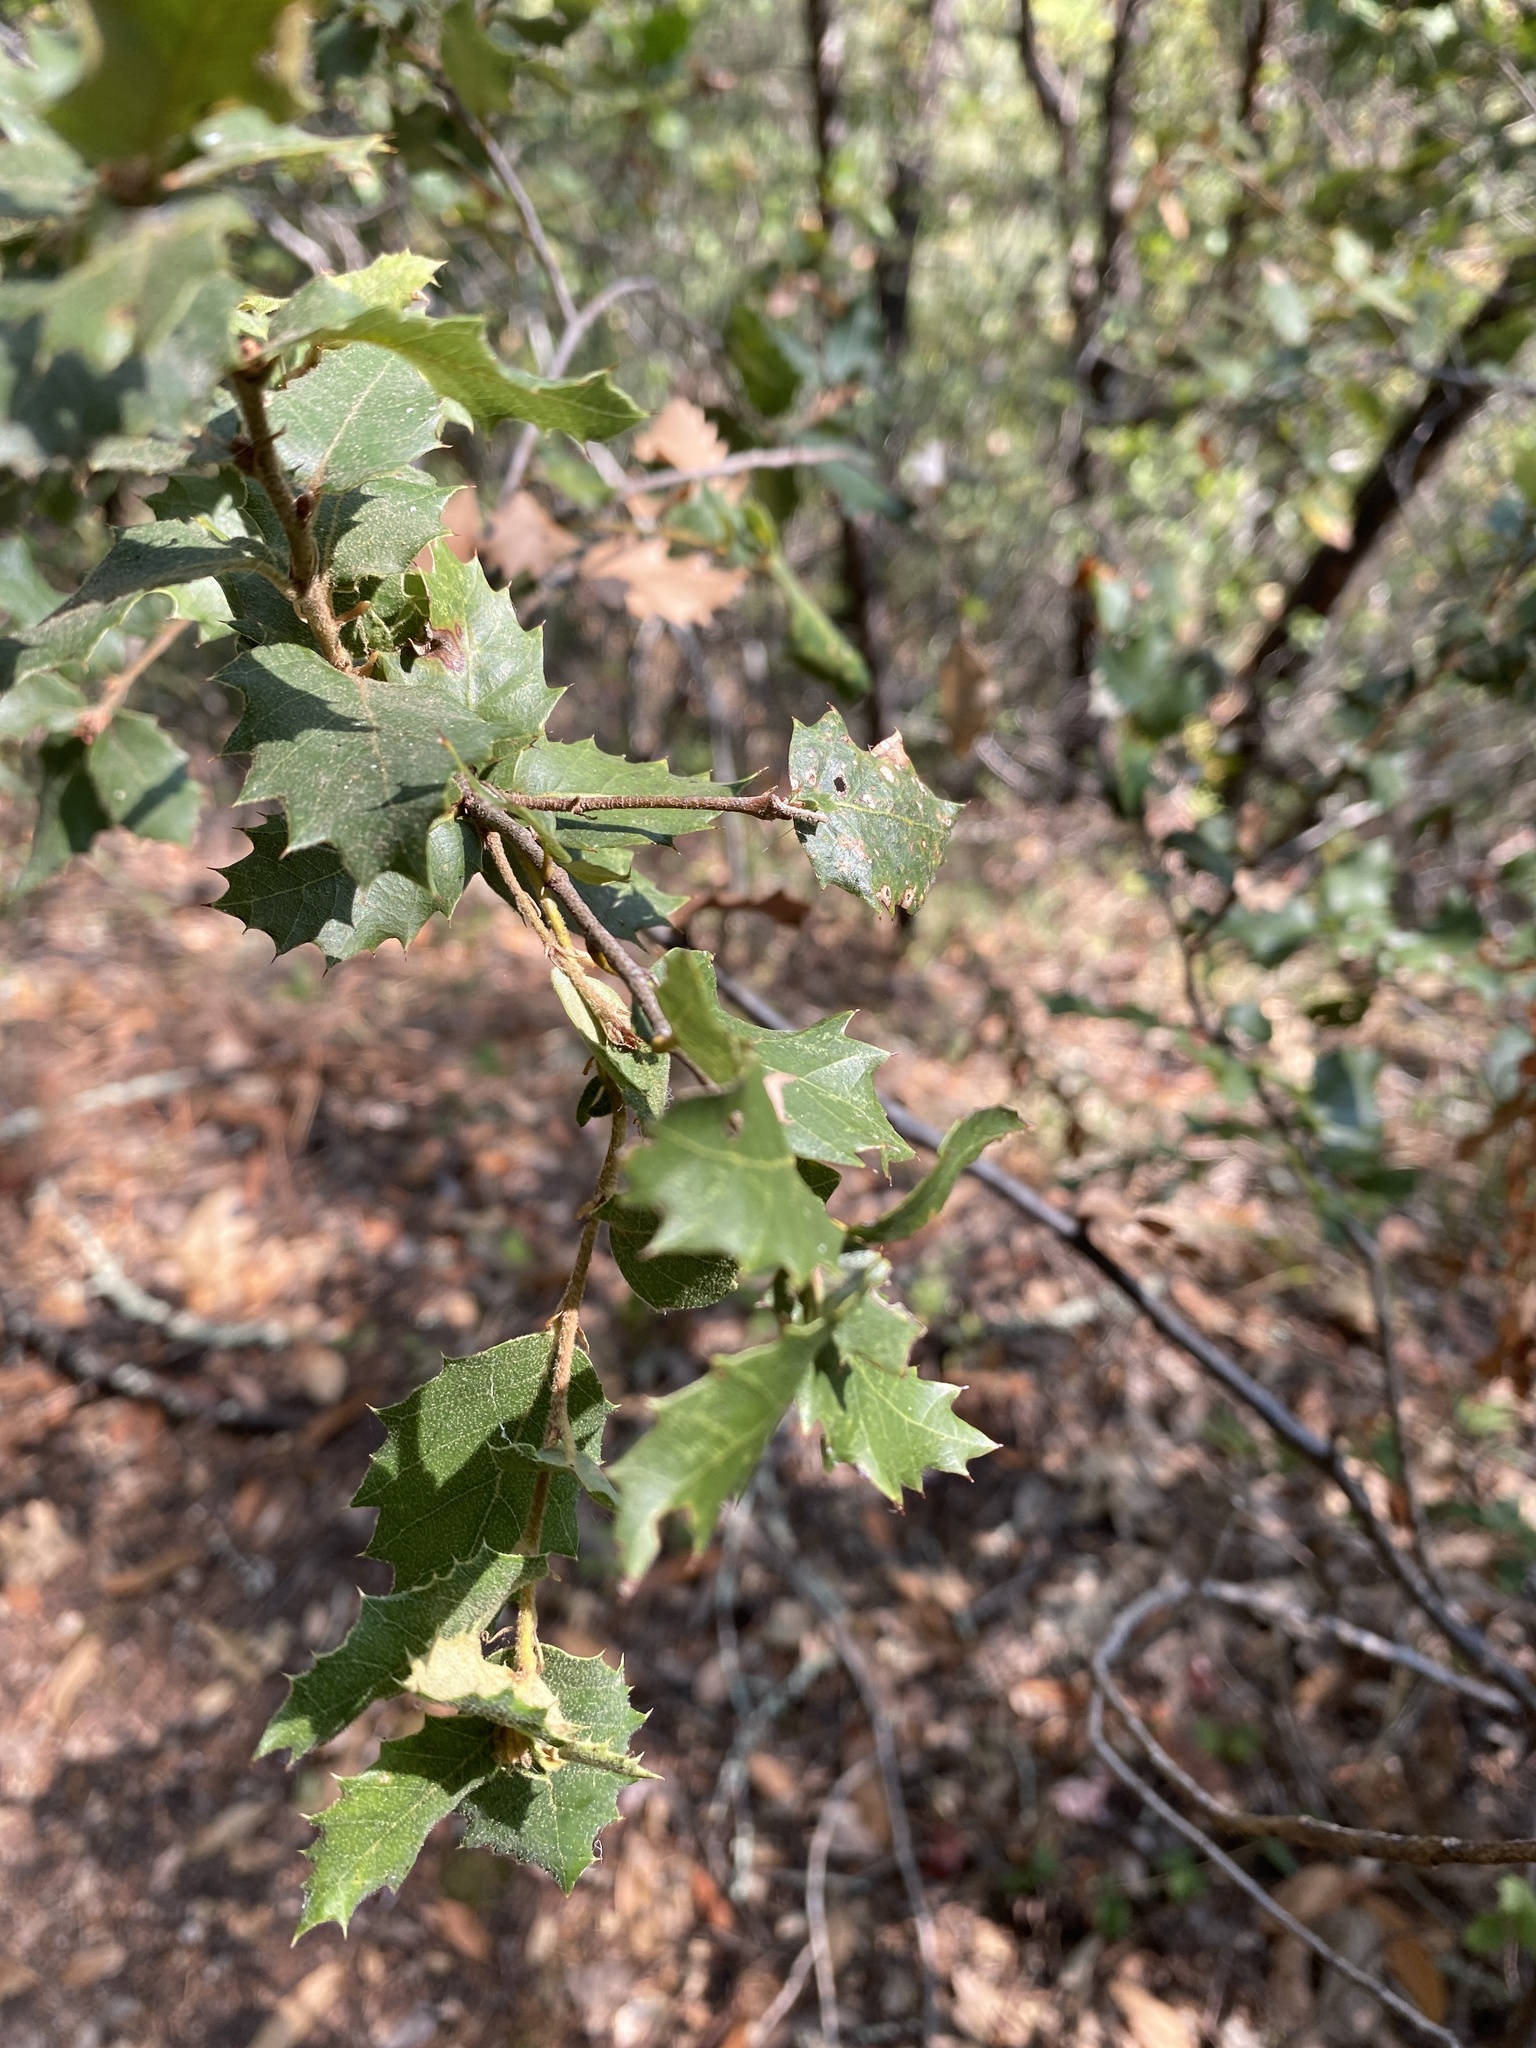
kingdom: Plantae
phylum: Tracheophyta
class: Magnoliopsida
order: Fagales
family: Fagaceae
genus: Quercus
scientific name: Quercus wislizeni
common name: Interior live oak
